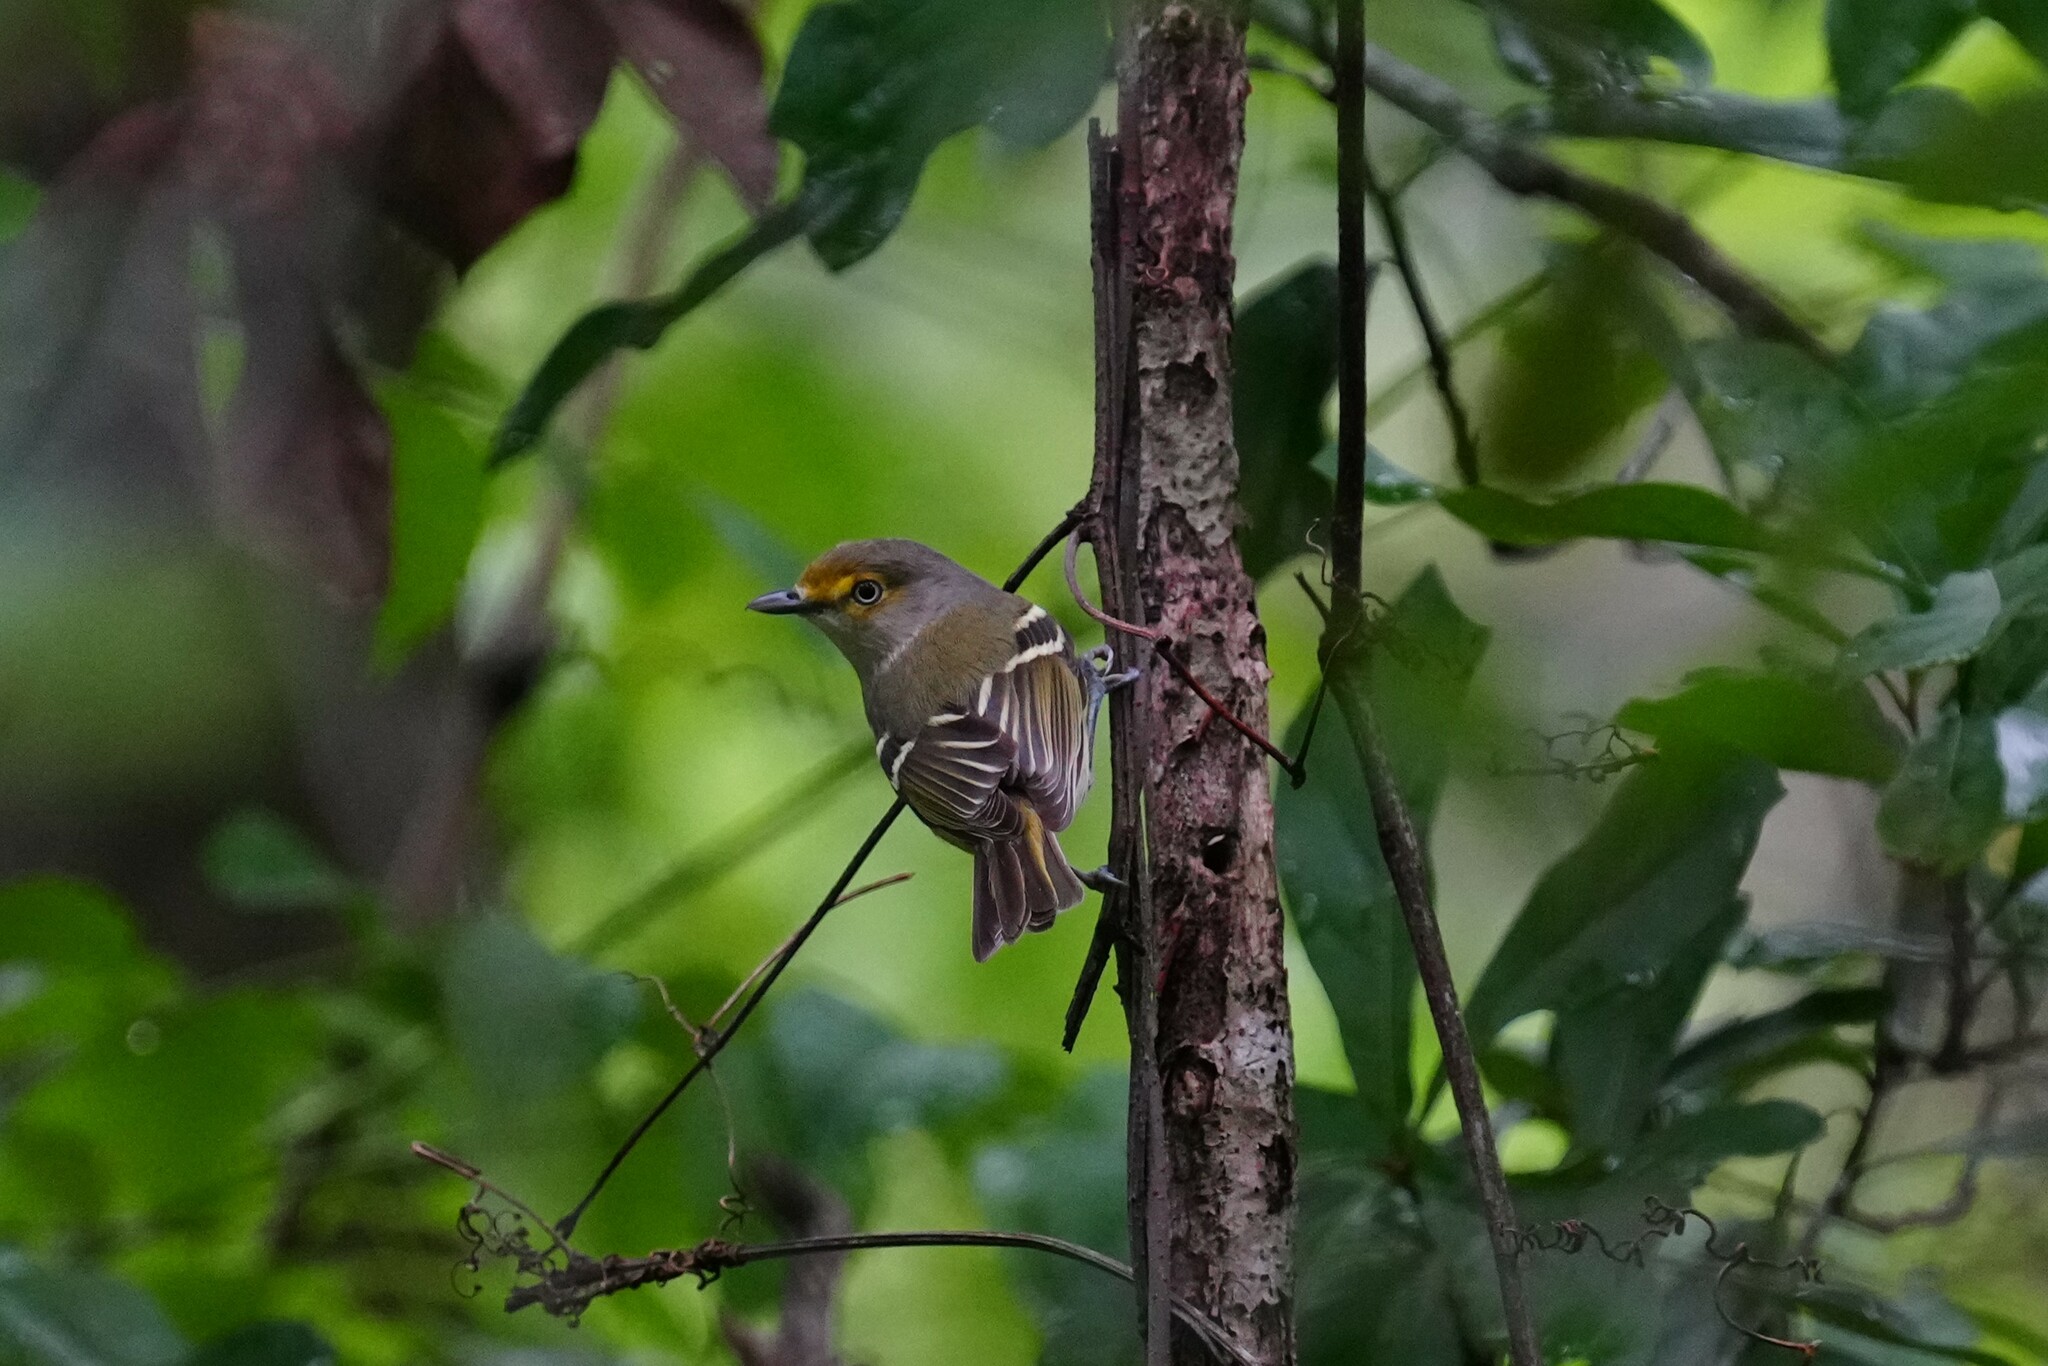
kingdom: Animalia
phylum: Chordata
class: Aves
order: Passeriformes
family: Vireonidae
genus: Vireo
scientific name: Vireo griseus
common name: White-eyed vireo
